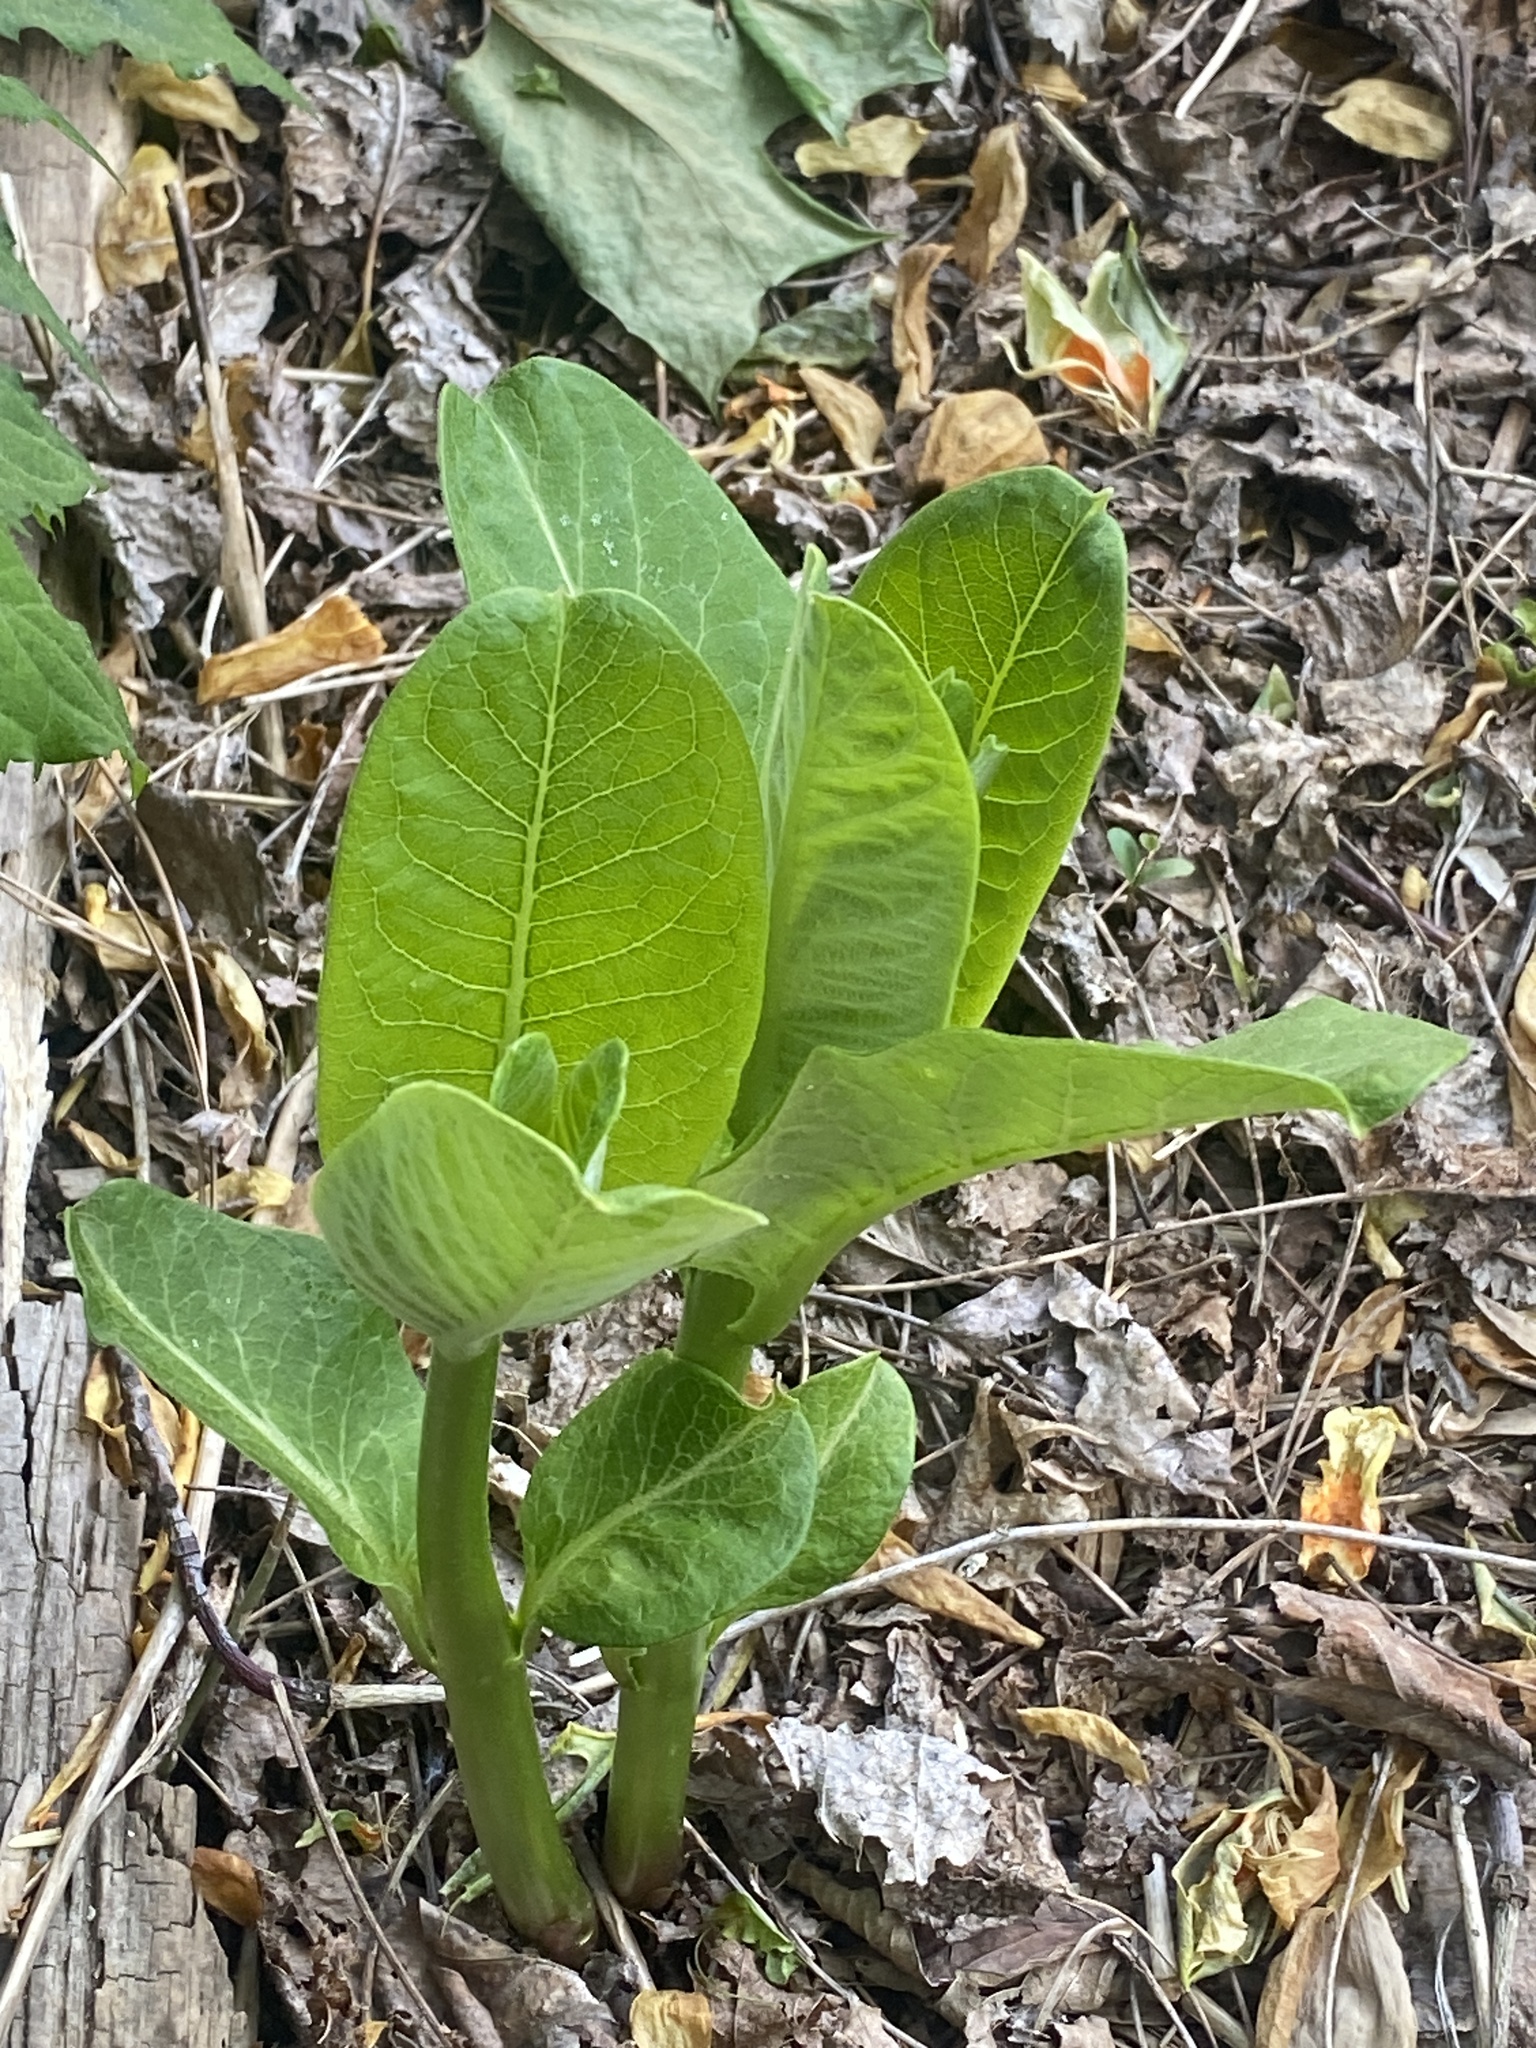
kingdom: Plantae
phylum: Tracheophyta
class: Magnoliopsida
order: Gentianales
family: Apocynaceae
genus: Asclepias
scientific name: Asclepias syriaca
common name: Common milkweed
